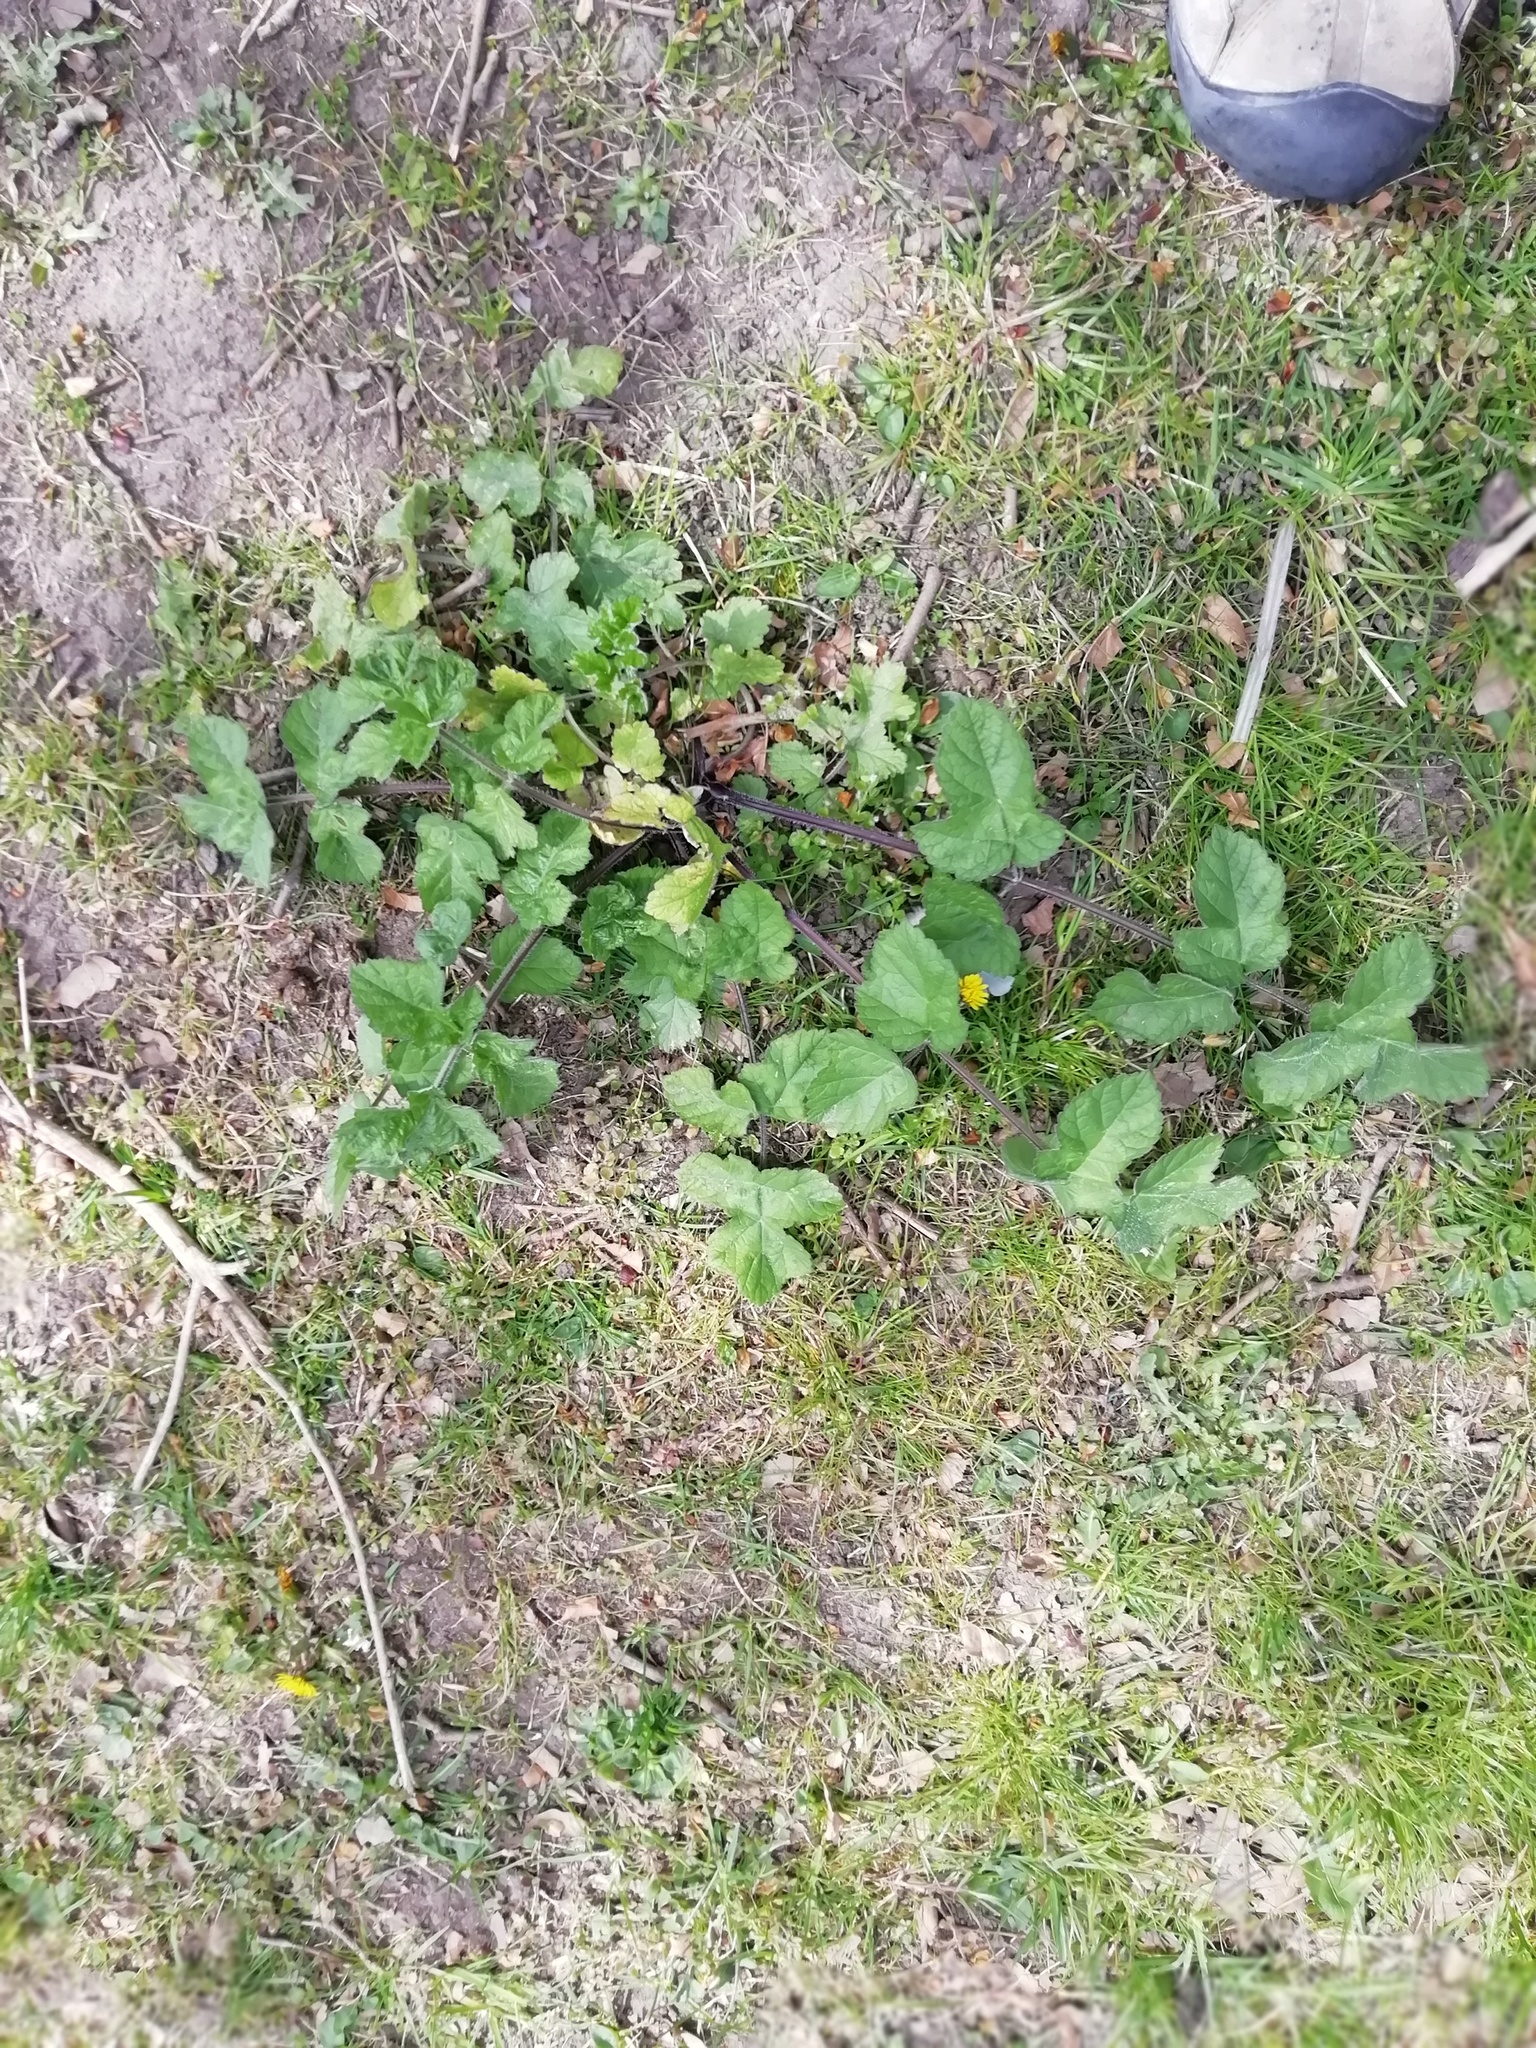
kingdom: Plantae
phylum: Tracheophyta
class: Magnoliopsida
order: Apiales
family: Apiaceae
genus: Heracleum
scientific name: Heracleum sphondylium
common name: Hogweed
